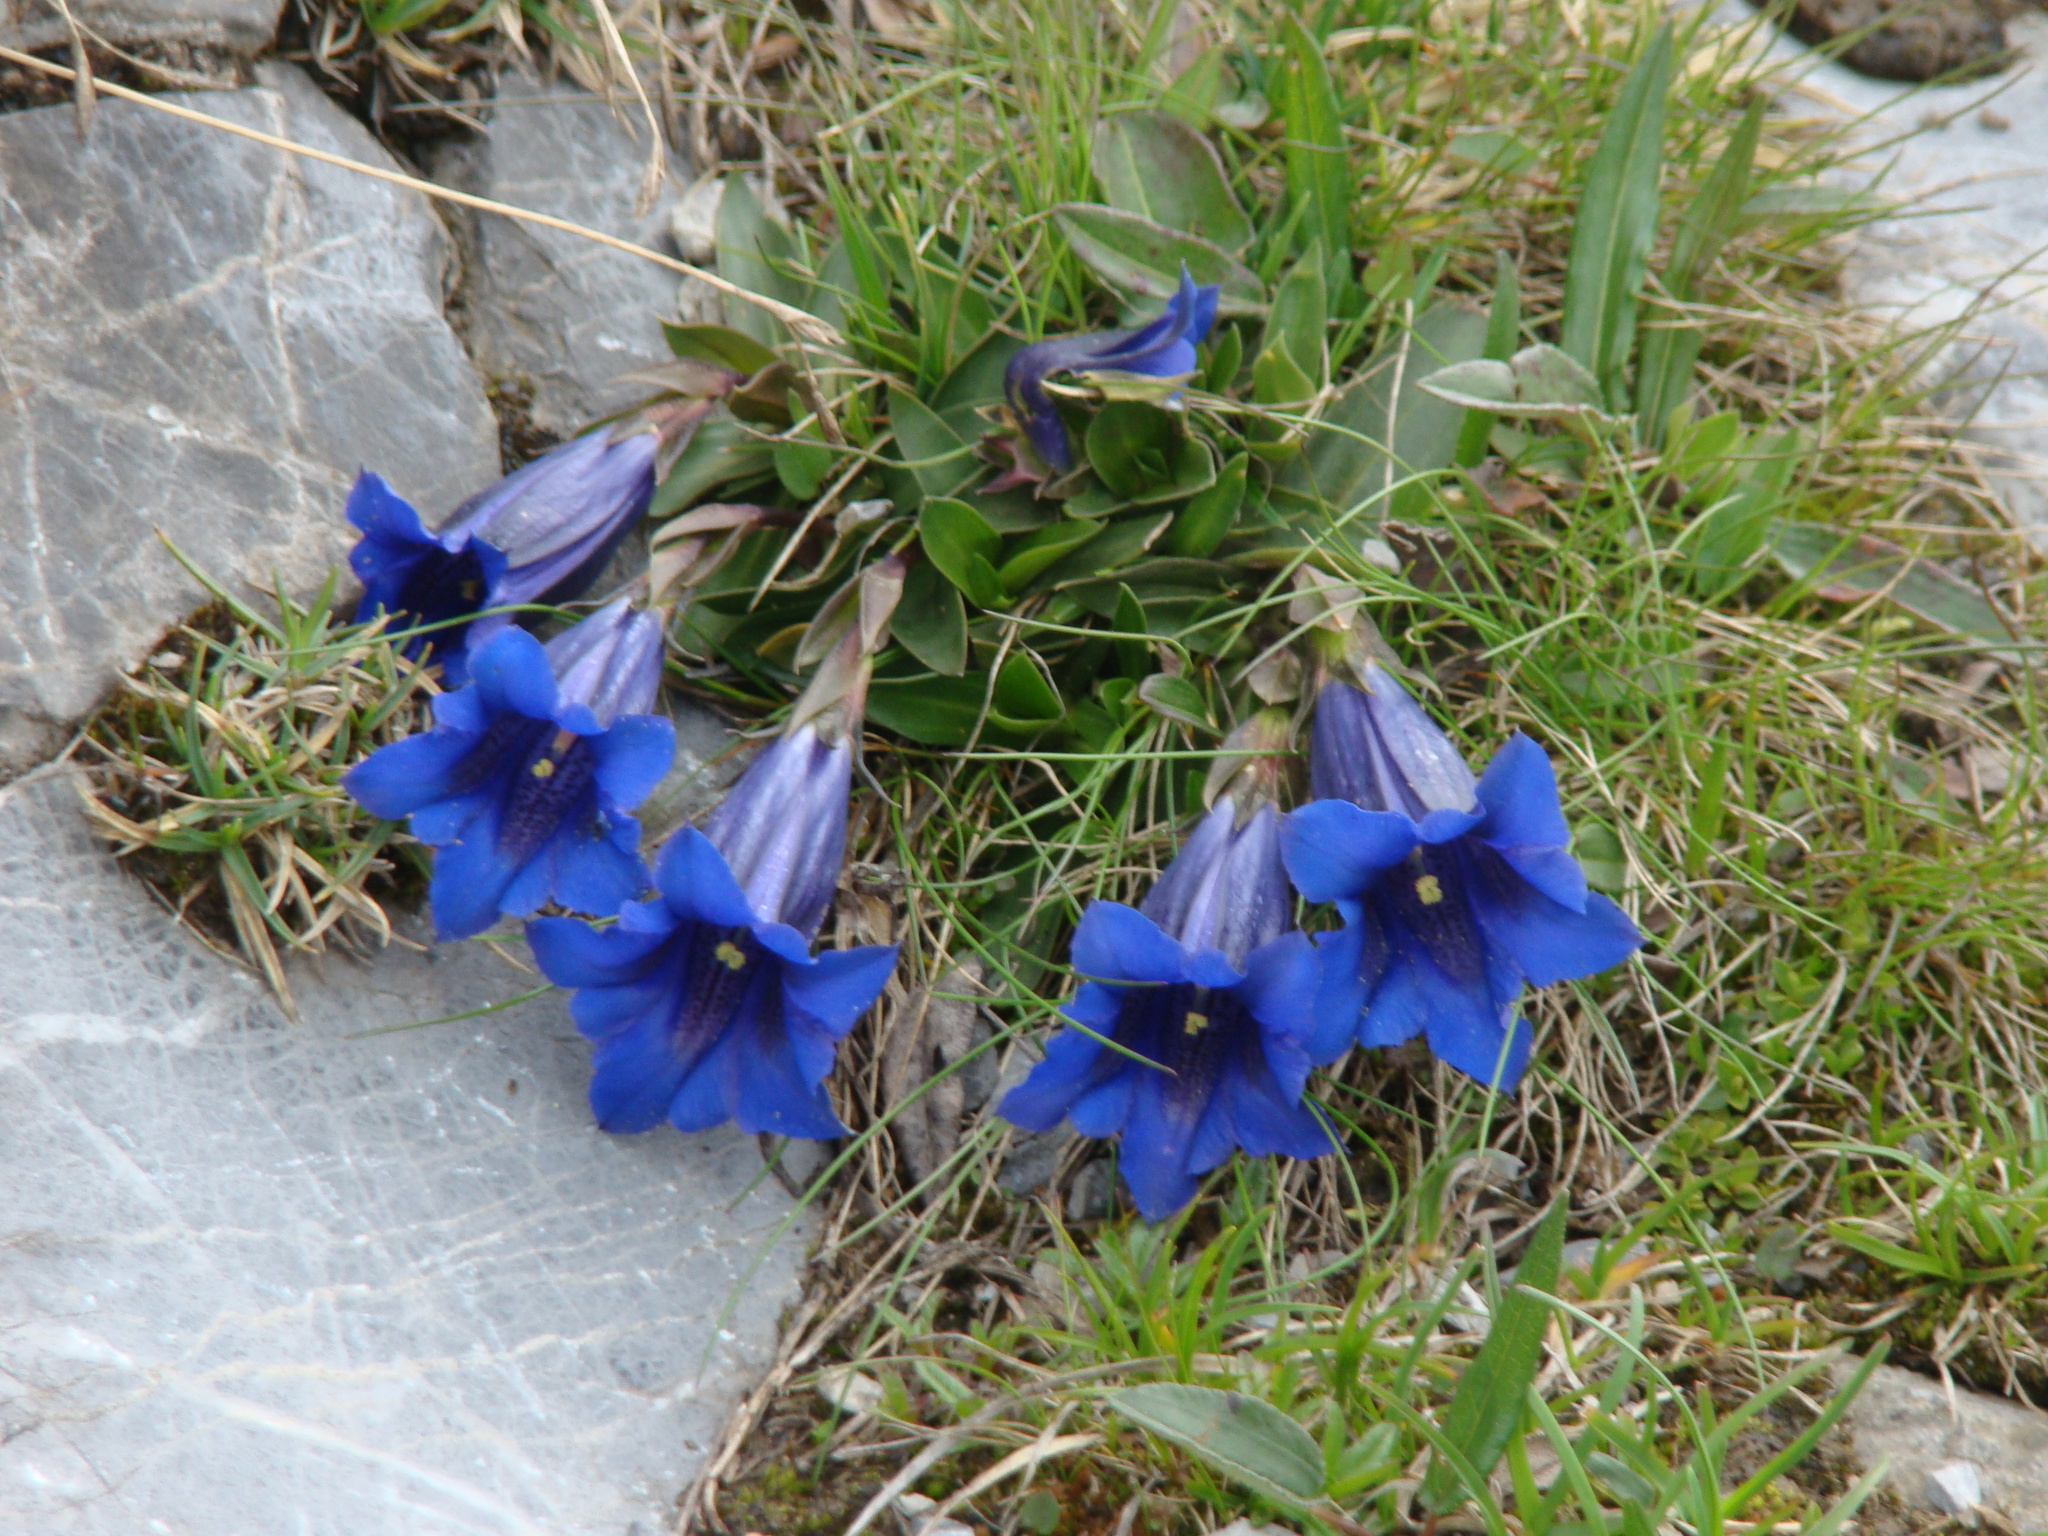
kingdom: Plantae
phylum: Tracheophyta
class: Magnoliopsida
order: Gentianales
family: Gentianaceae
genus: Gentiana
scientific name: Gentiana clusii
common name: Trumpet gentian
